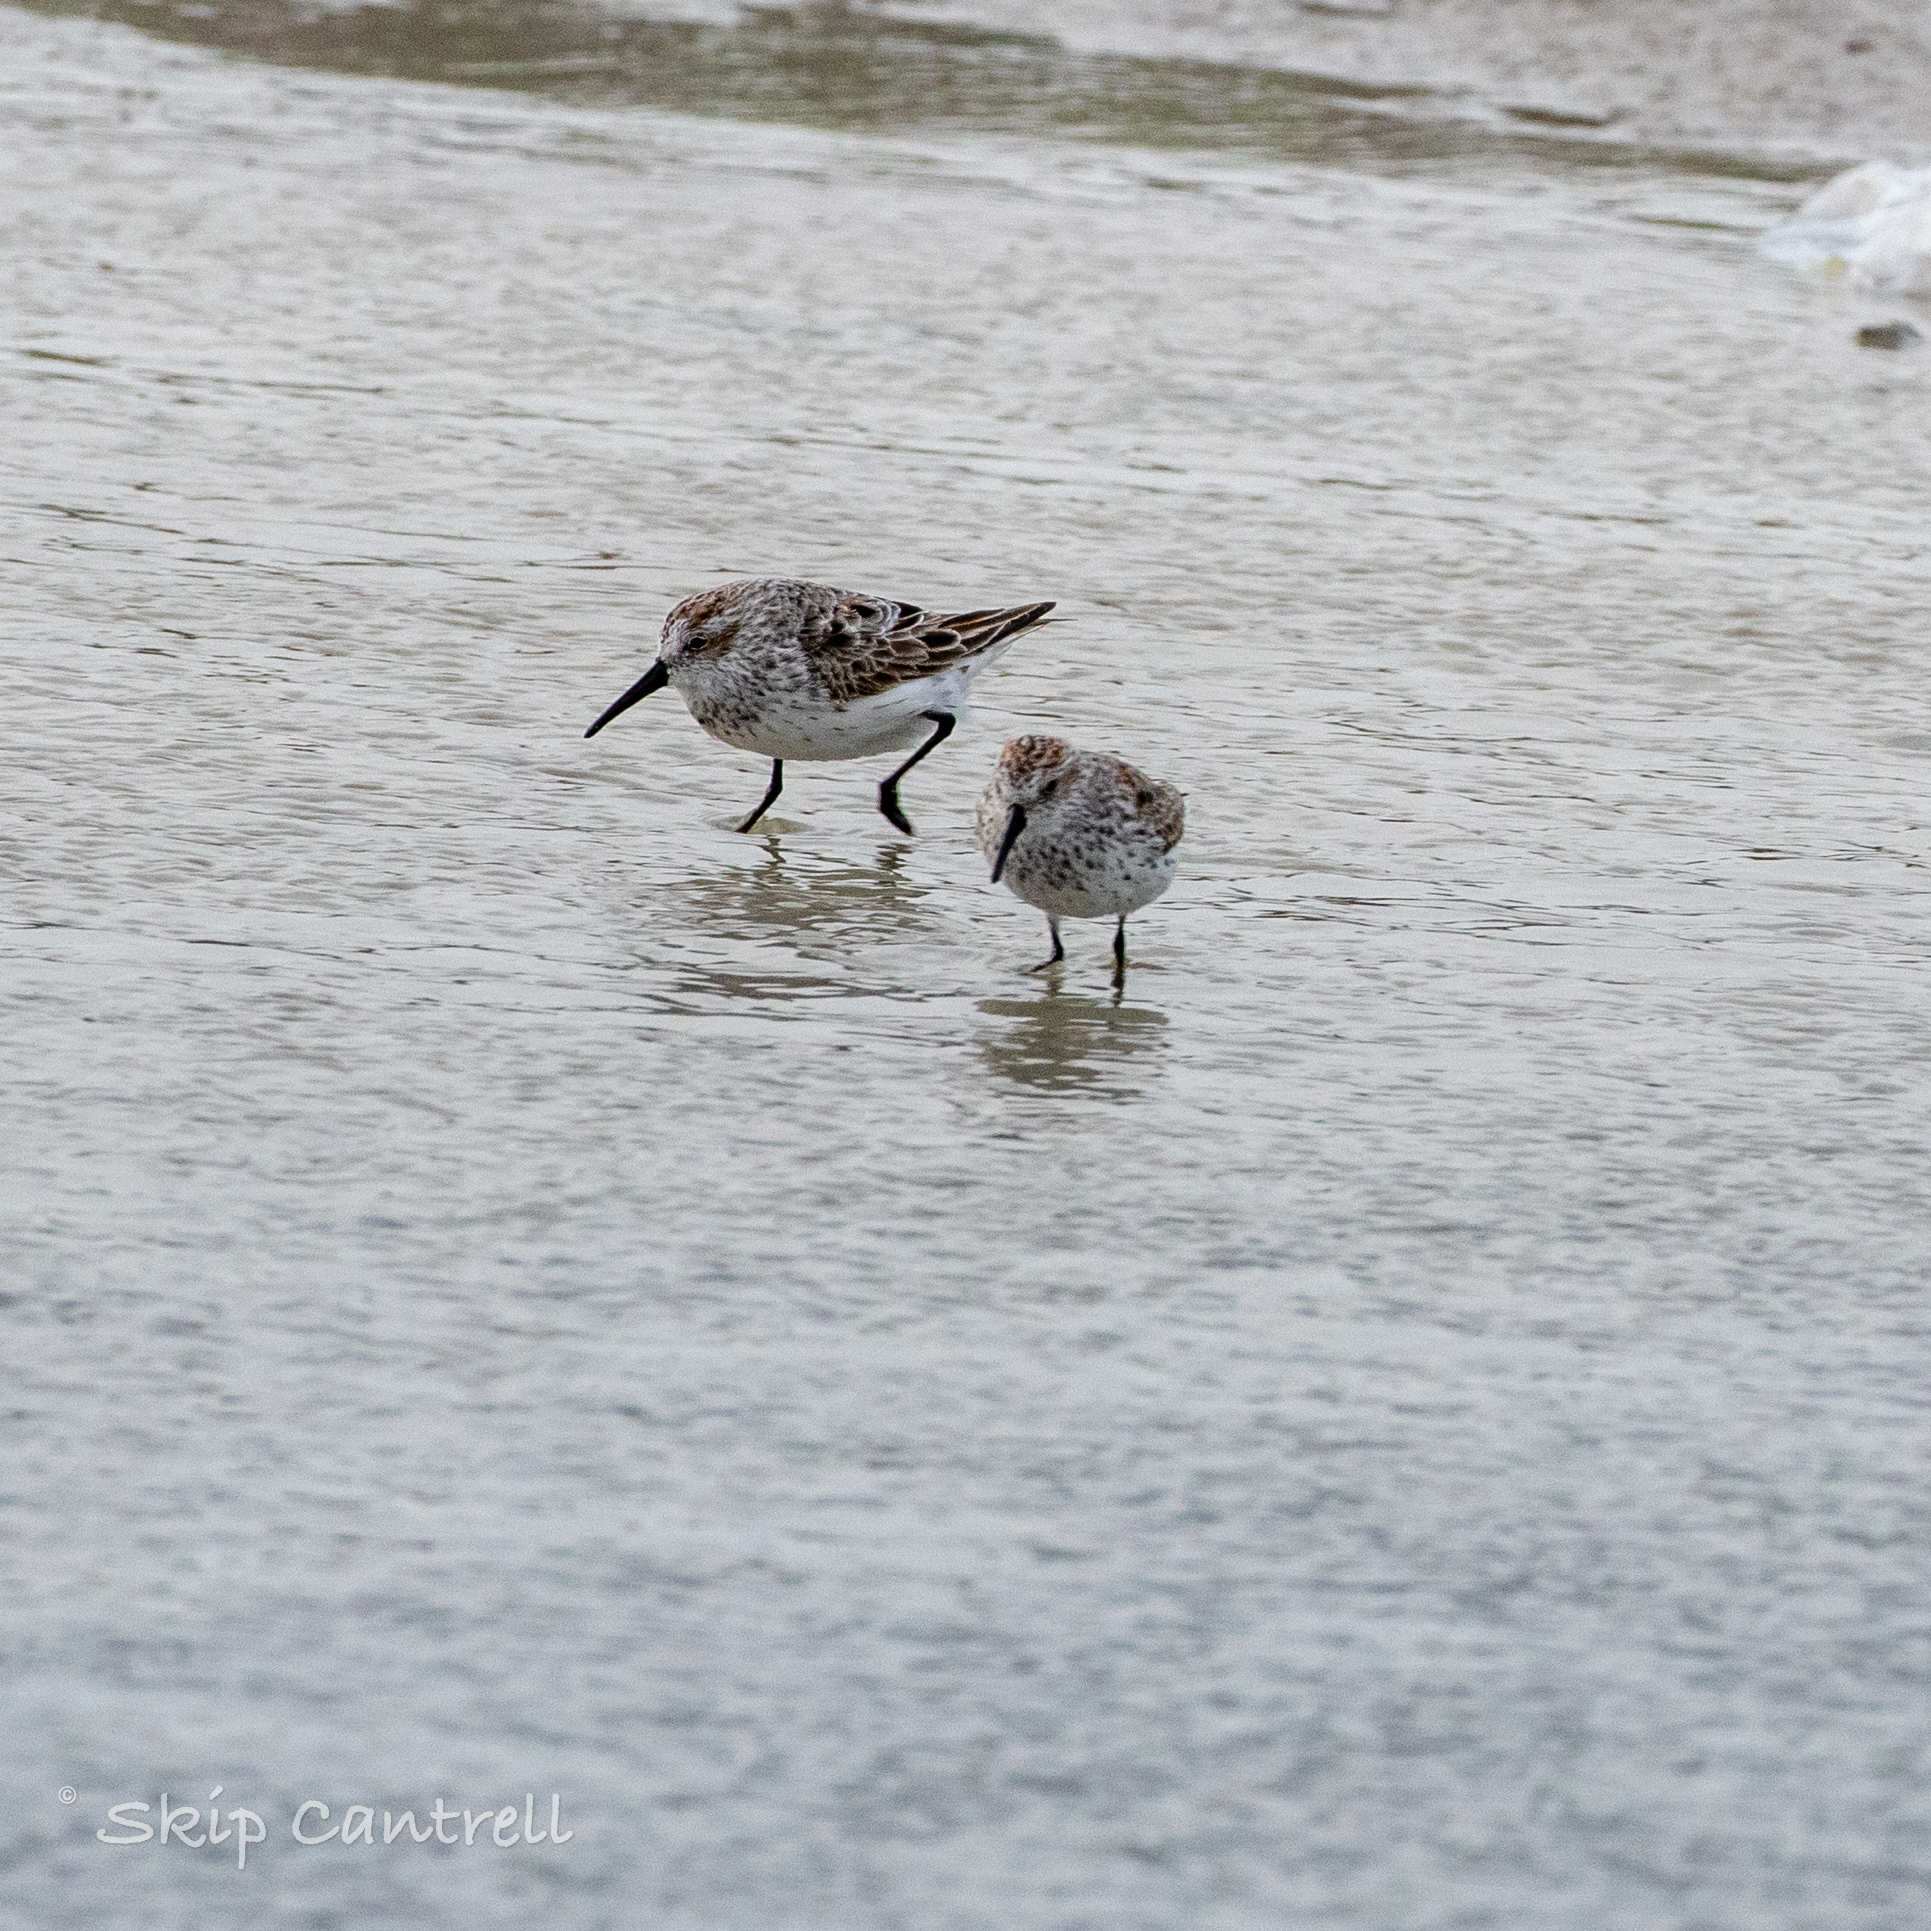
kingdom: Animalia
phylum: Chordata
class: Aves
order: Charadriiformes
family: Scolopacidae
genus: Calidris
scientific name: Calidris mauri
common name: Western sandpiper
